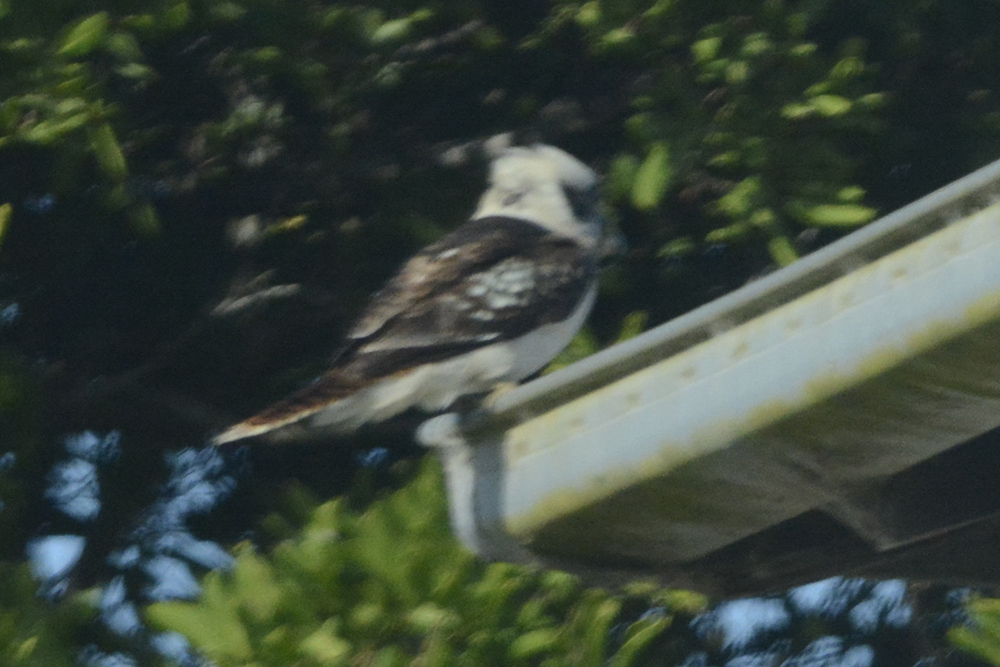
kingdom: Animalia
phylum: Chordata
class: Aves
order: Coraciiformes
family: Alcedinidae
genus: Dacelo
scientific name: Dacelo novaeguineae
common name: Laughing kookaburra
